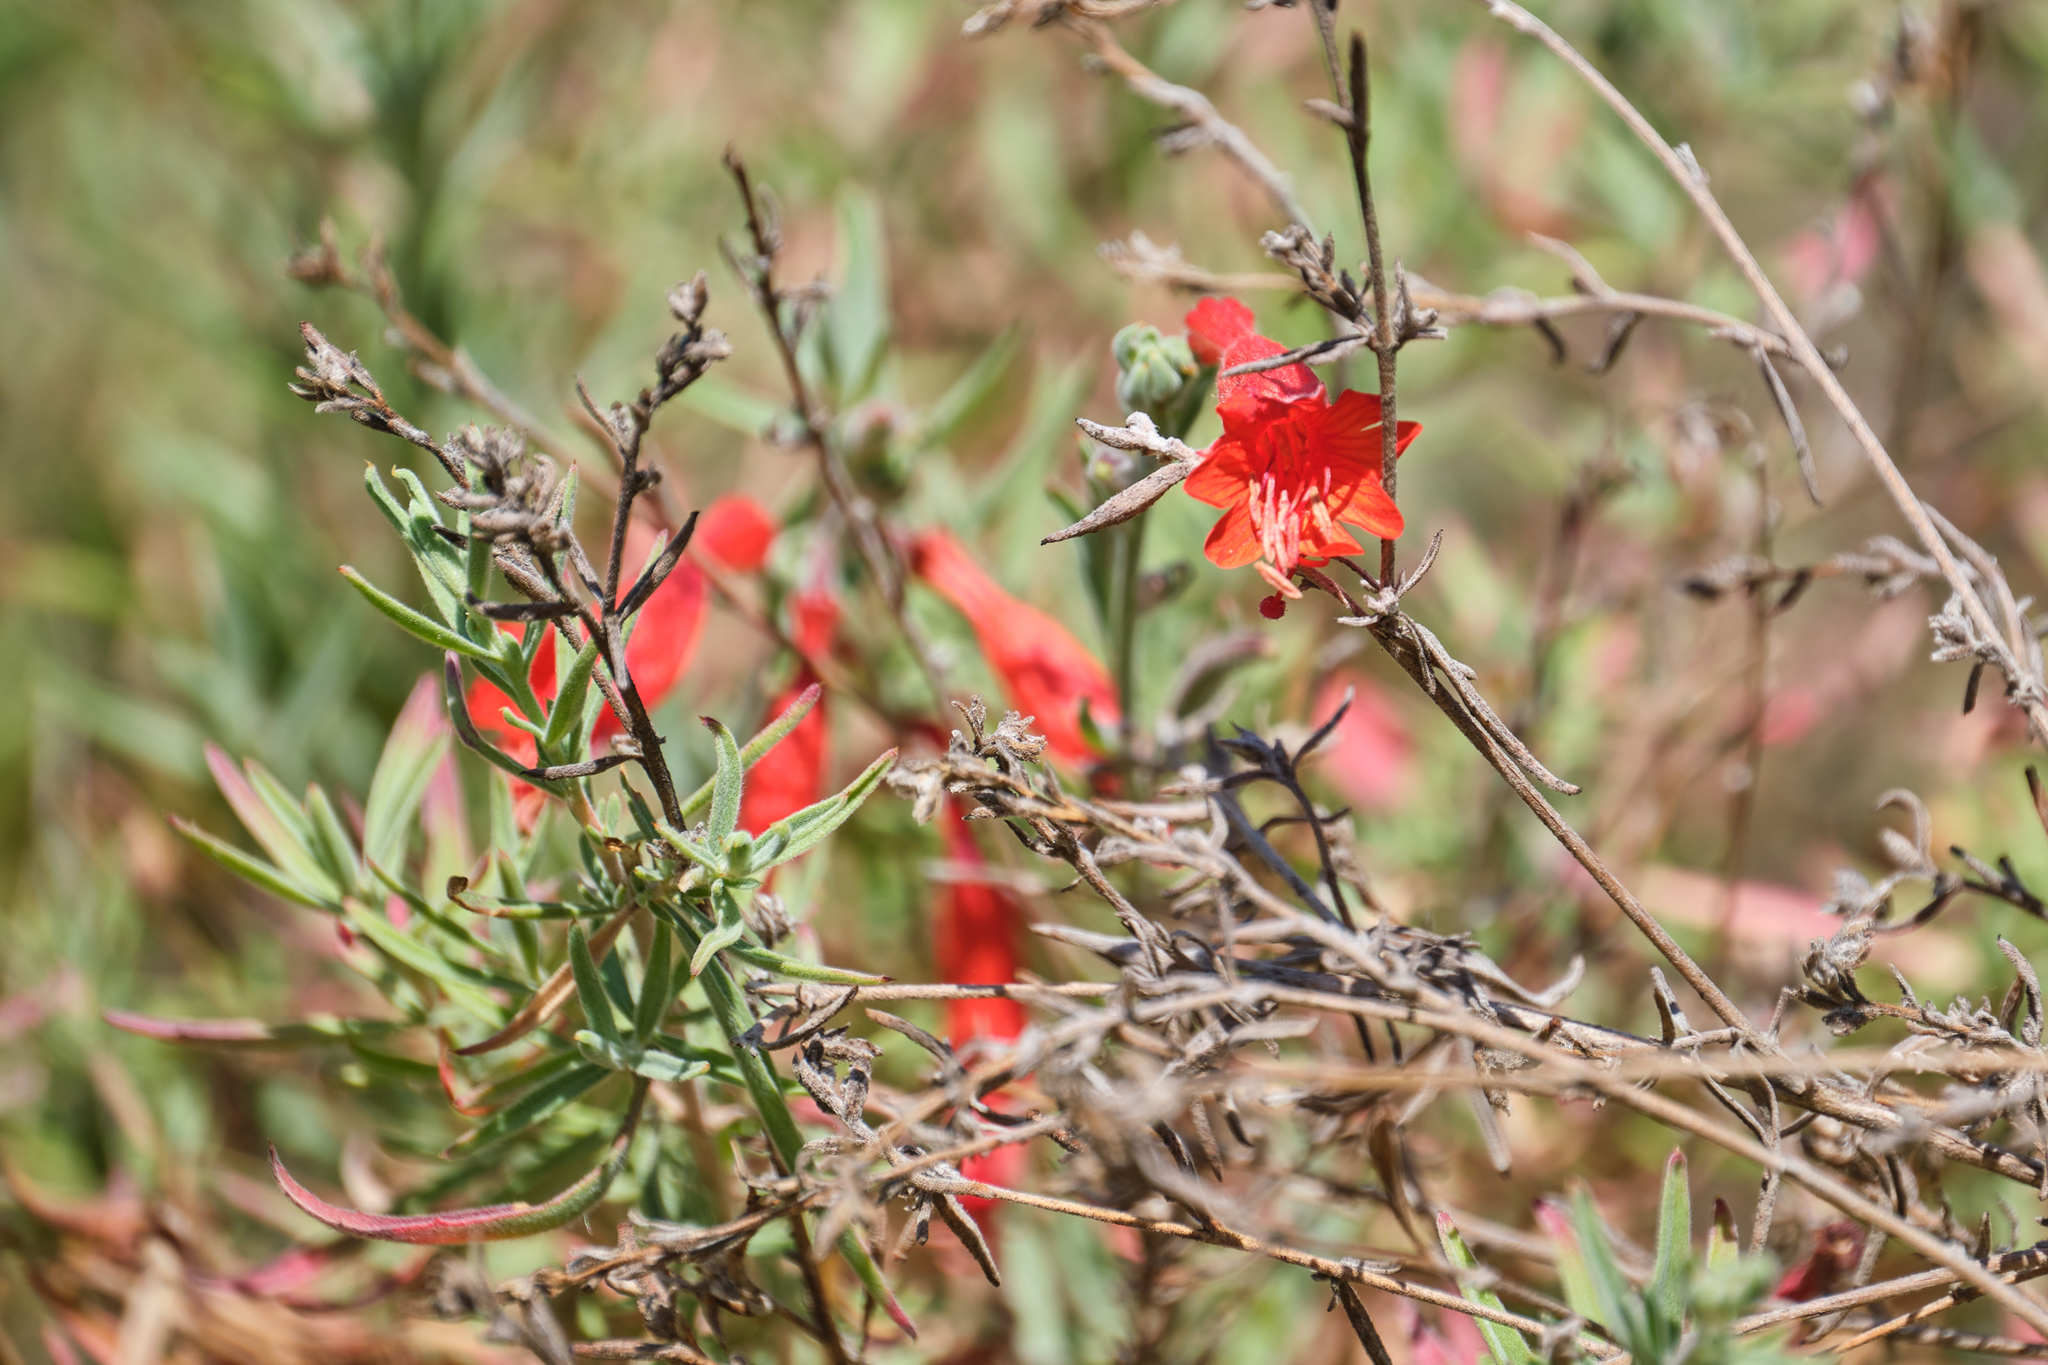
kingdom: Plantae
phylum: Tracheophyta
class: Magnoliopsida
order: Myrtales
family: Onagraceae
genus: Epilobium
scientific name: Epilobium canum
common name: California-fuchsia
